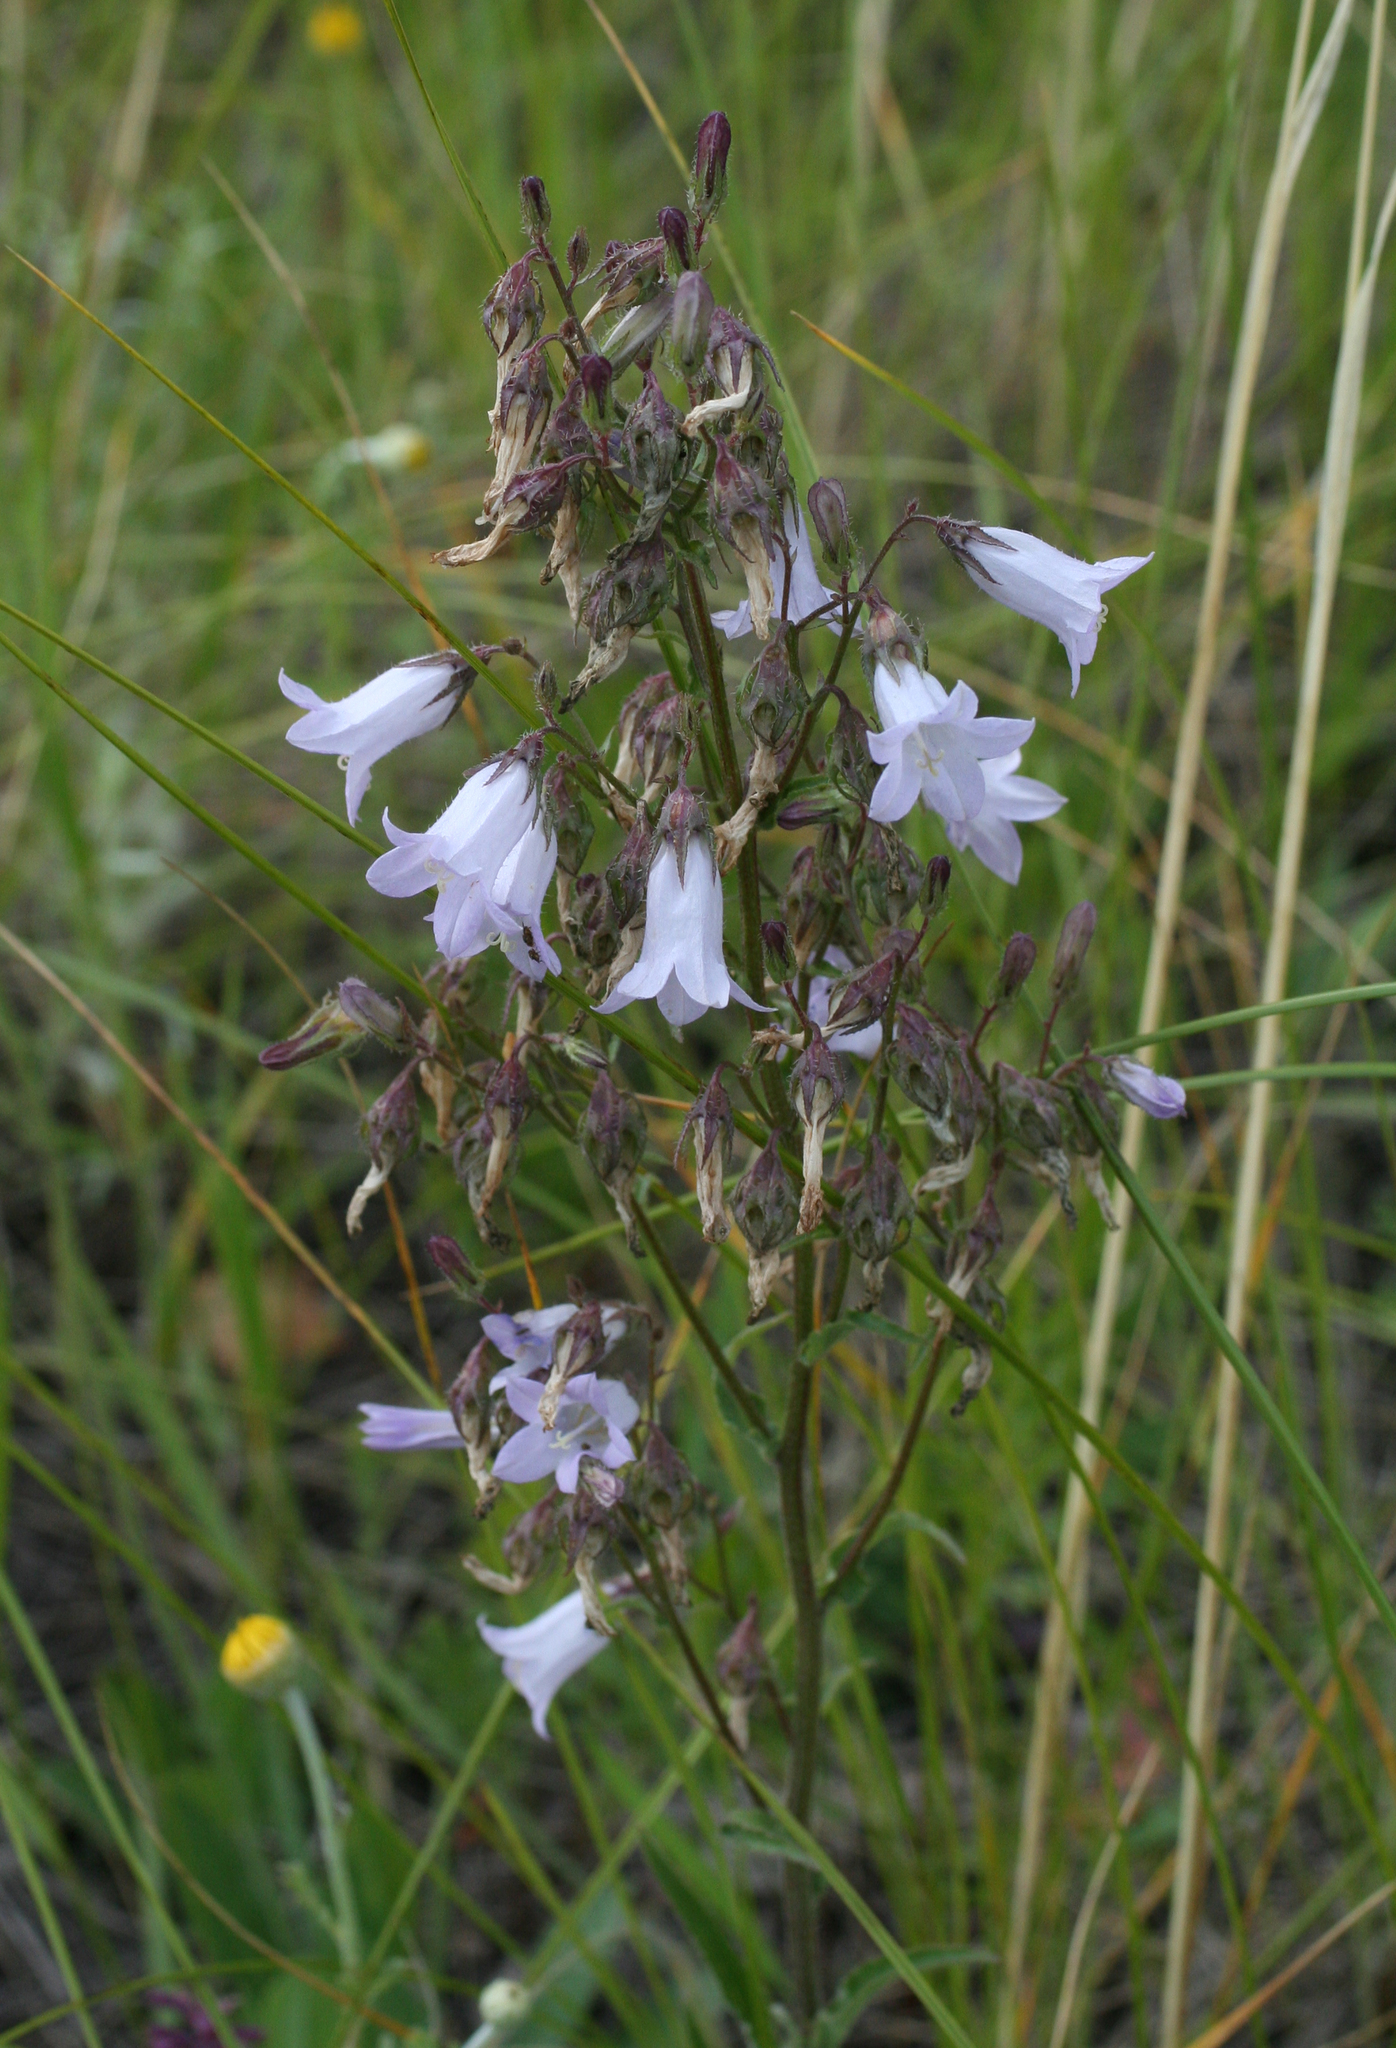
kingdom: Plantae
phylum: Tracheophyta
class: Magnoliopsida
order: Asterales
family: Campanulaceae
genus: Campanula
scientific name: Campanula sibirica
